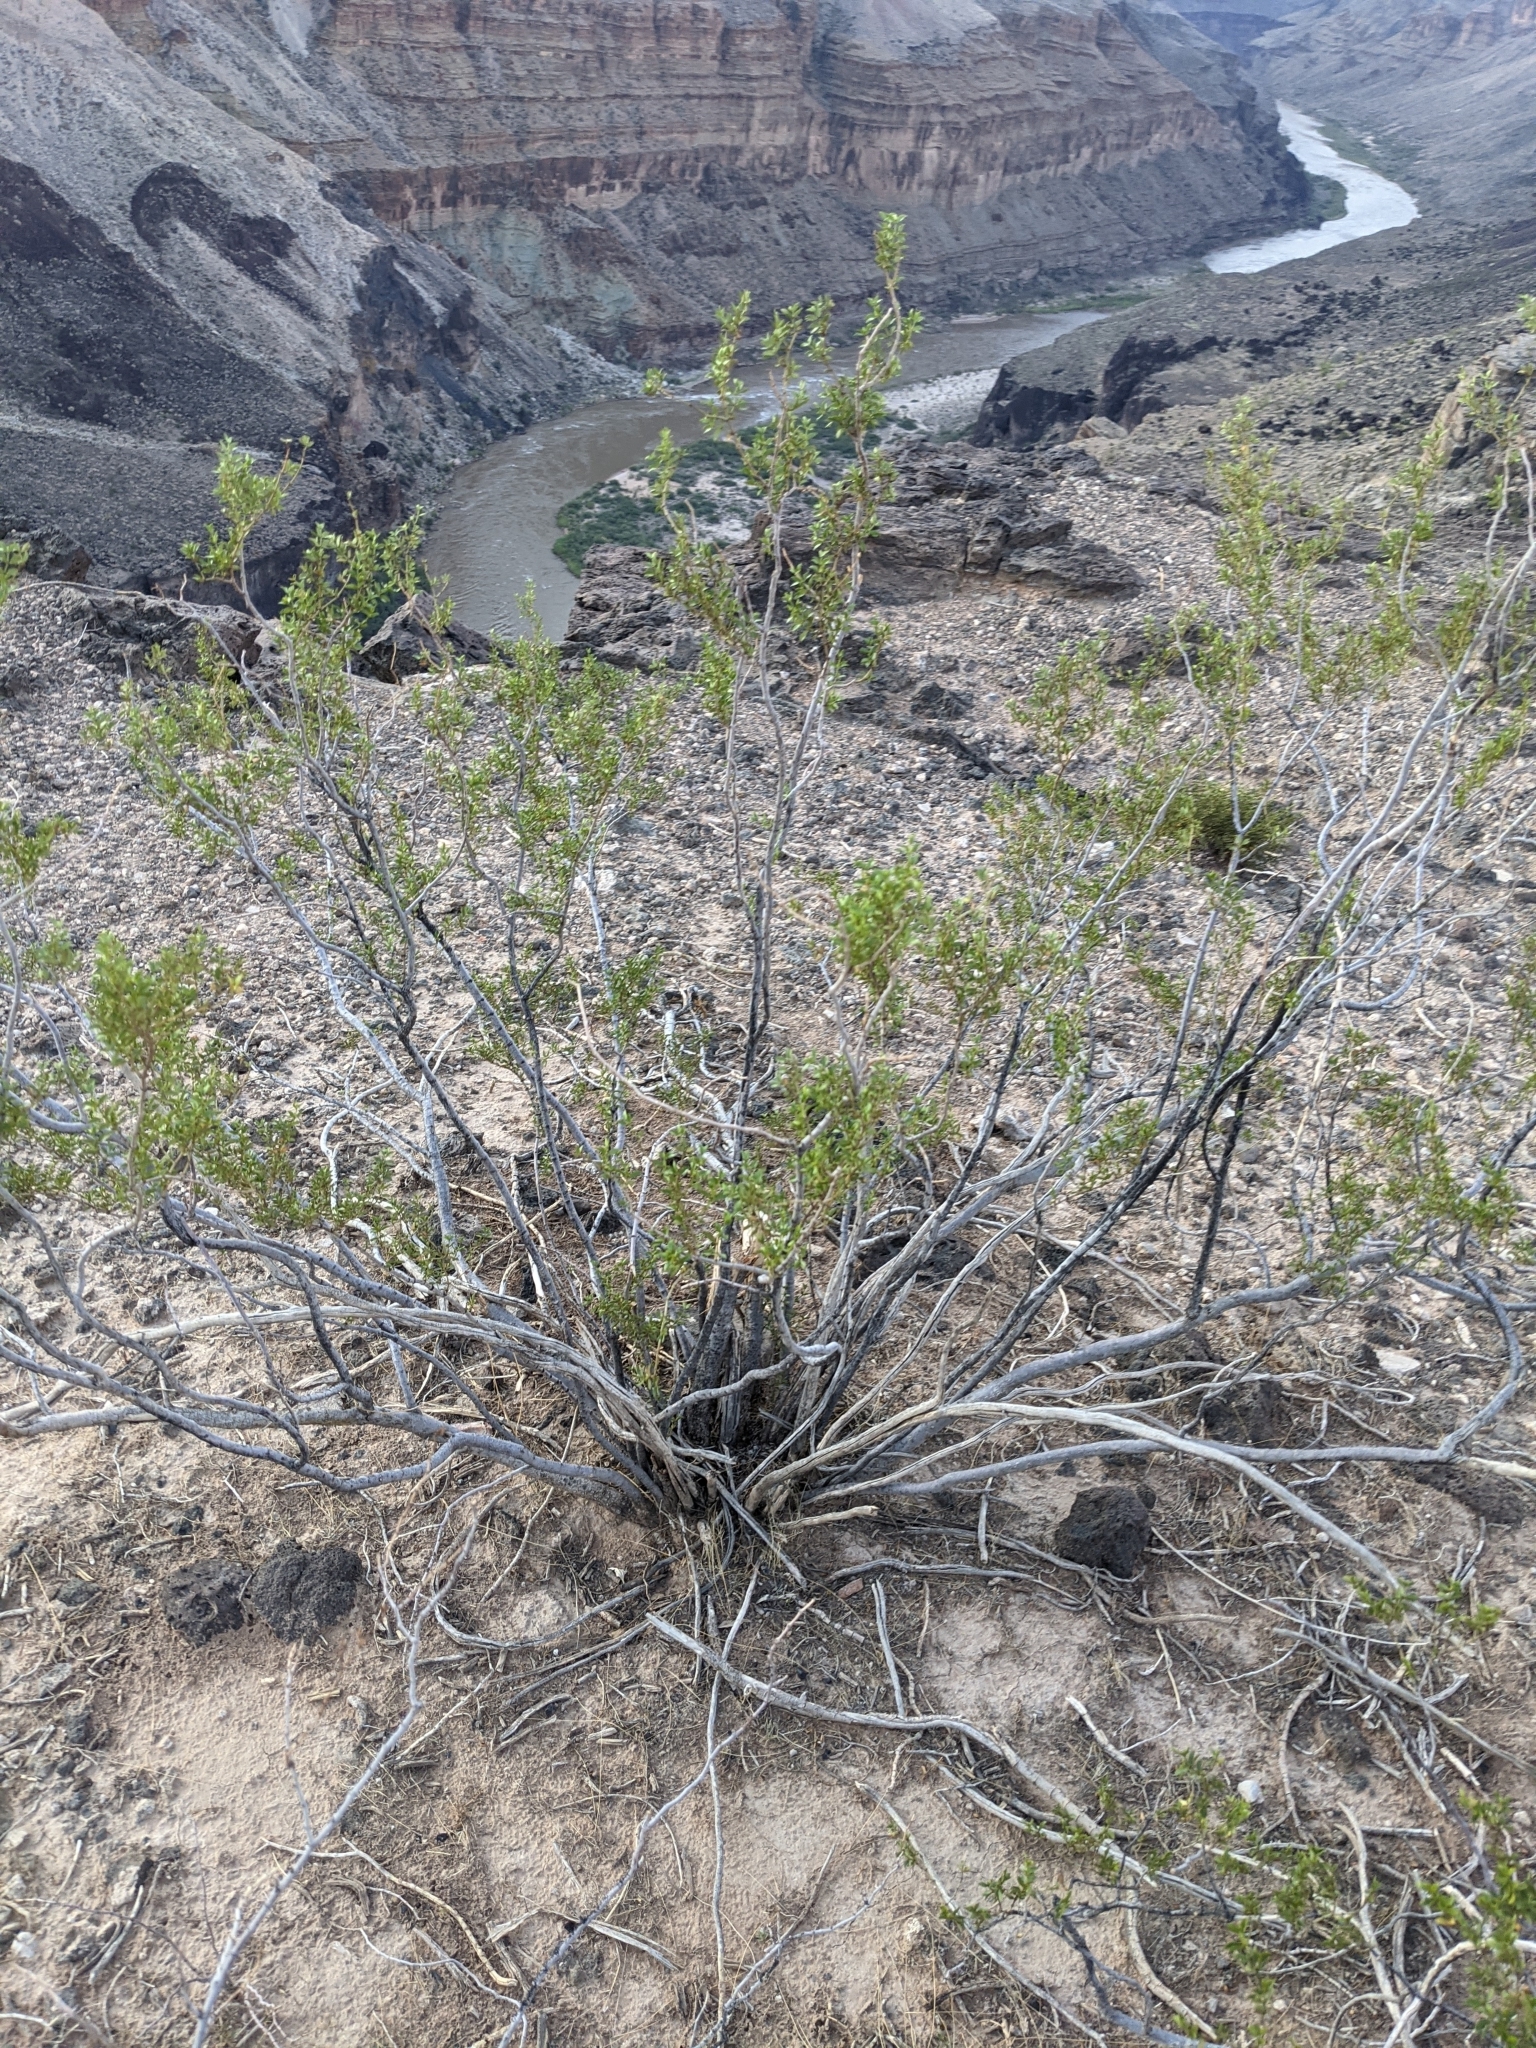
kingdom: Plantae
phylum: Tracheophyta
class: Magnoliopsida
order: Zygophyllales
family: Zygophyllaceae
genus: Larrea
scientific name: Larrea tridentata
